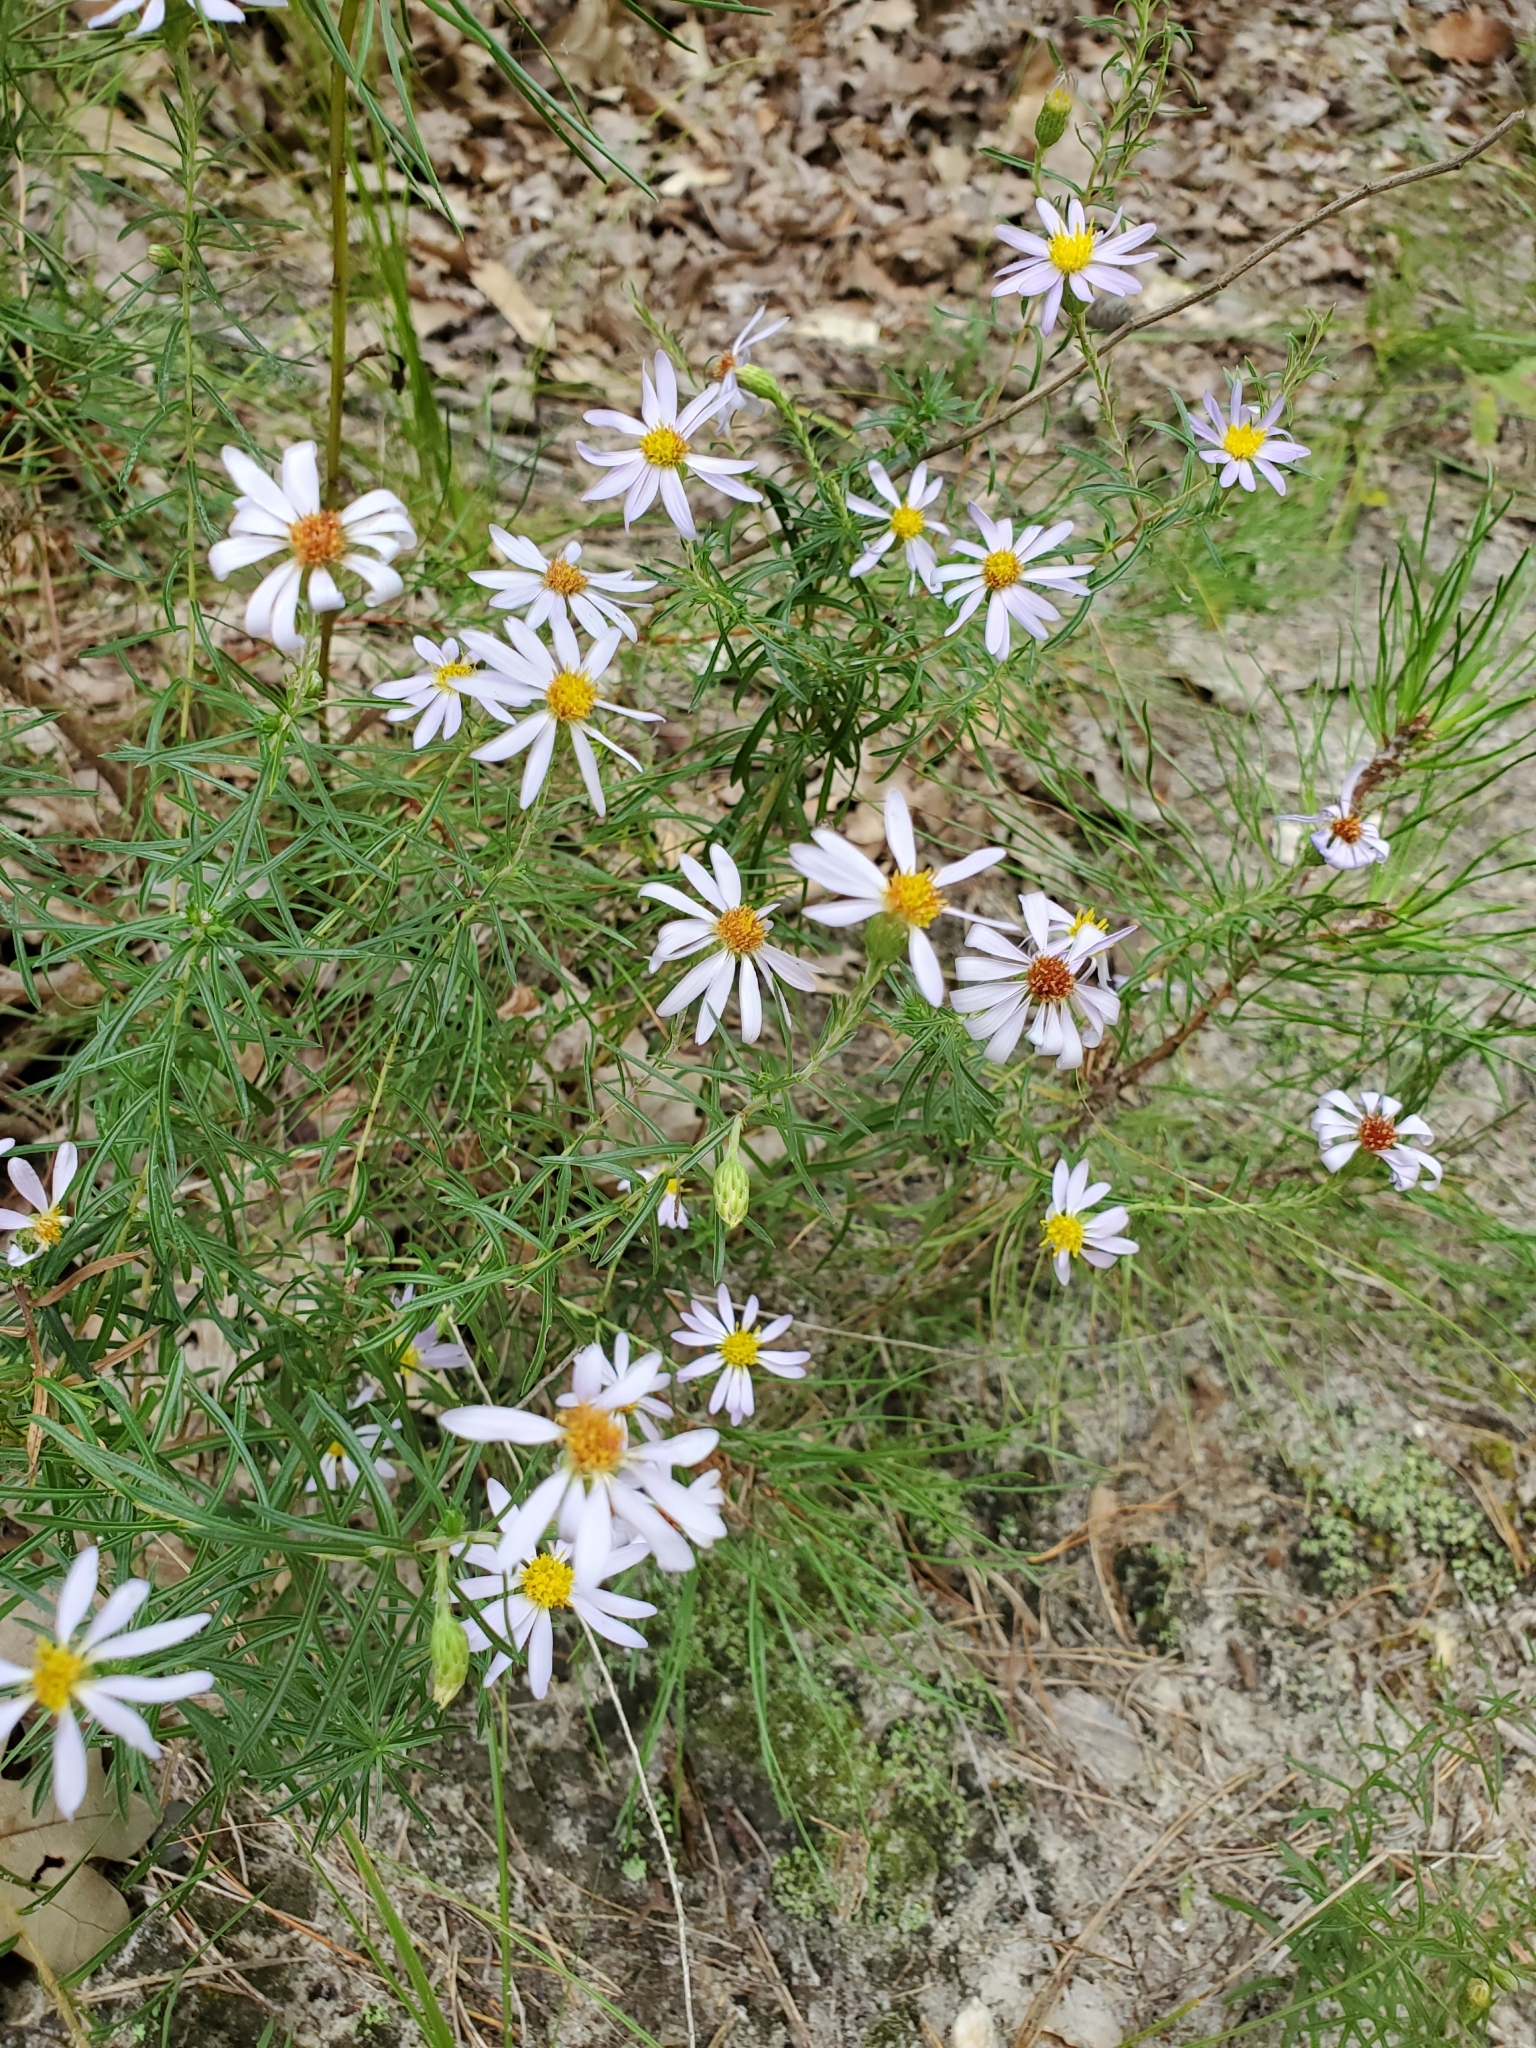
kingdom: Plantae
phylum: Tracheophyta
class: Magnoliopsida
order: Asterales
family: Asteraceae
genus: Ionactis
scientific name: Ionactis linariifolia
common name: Flax-leaf aster
